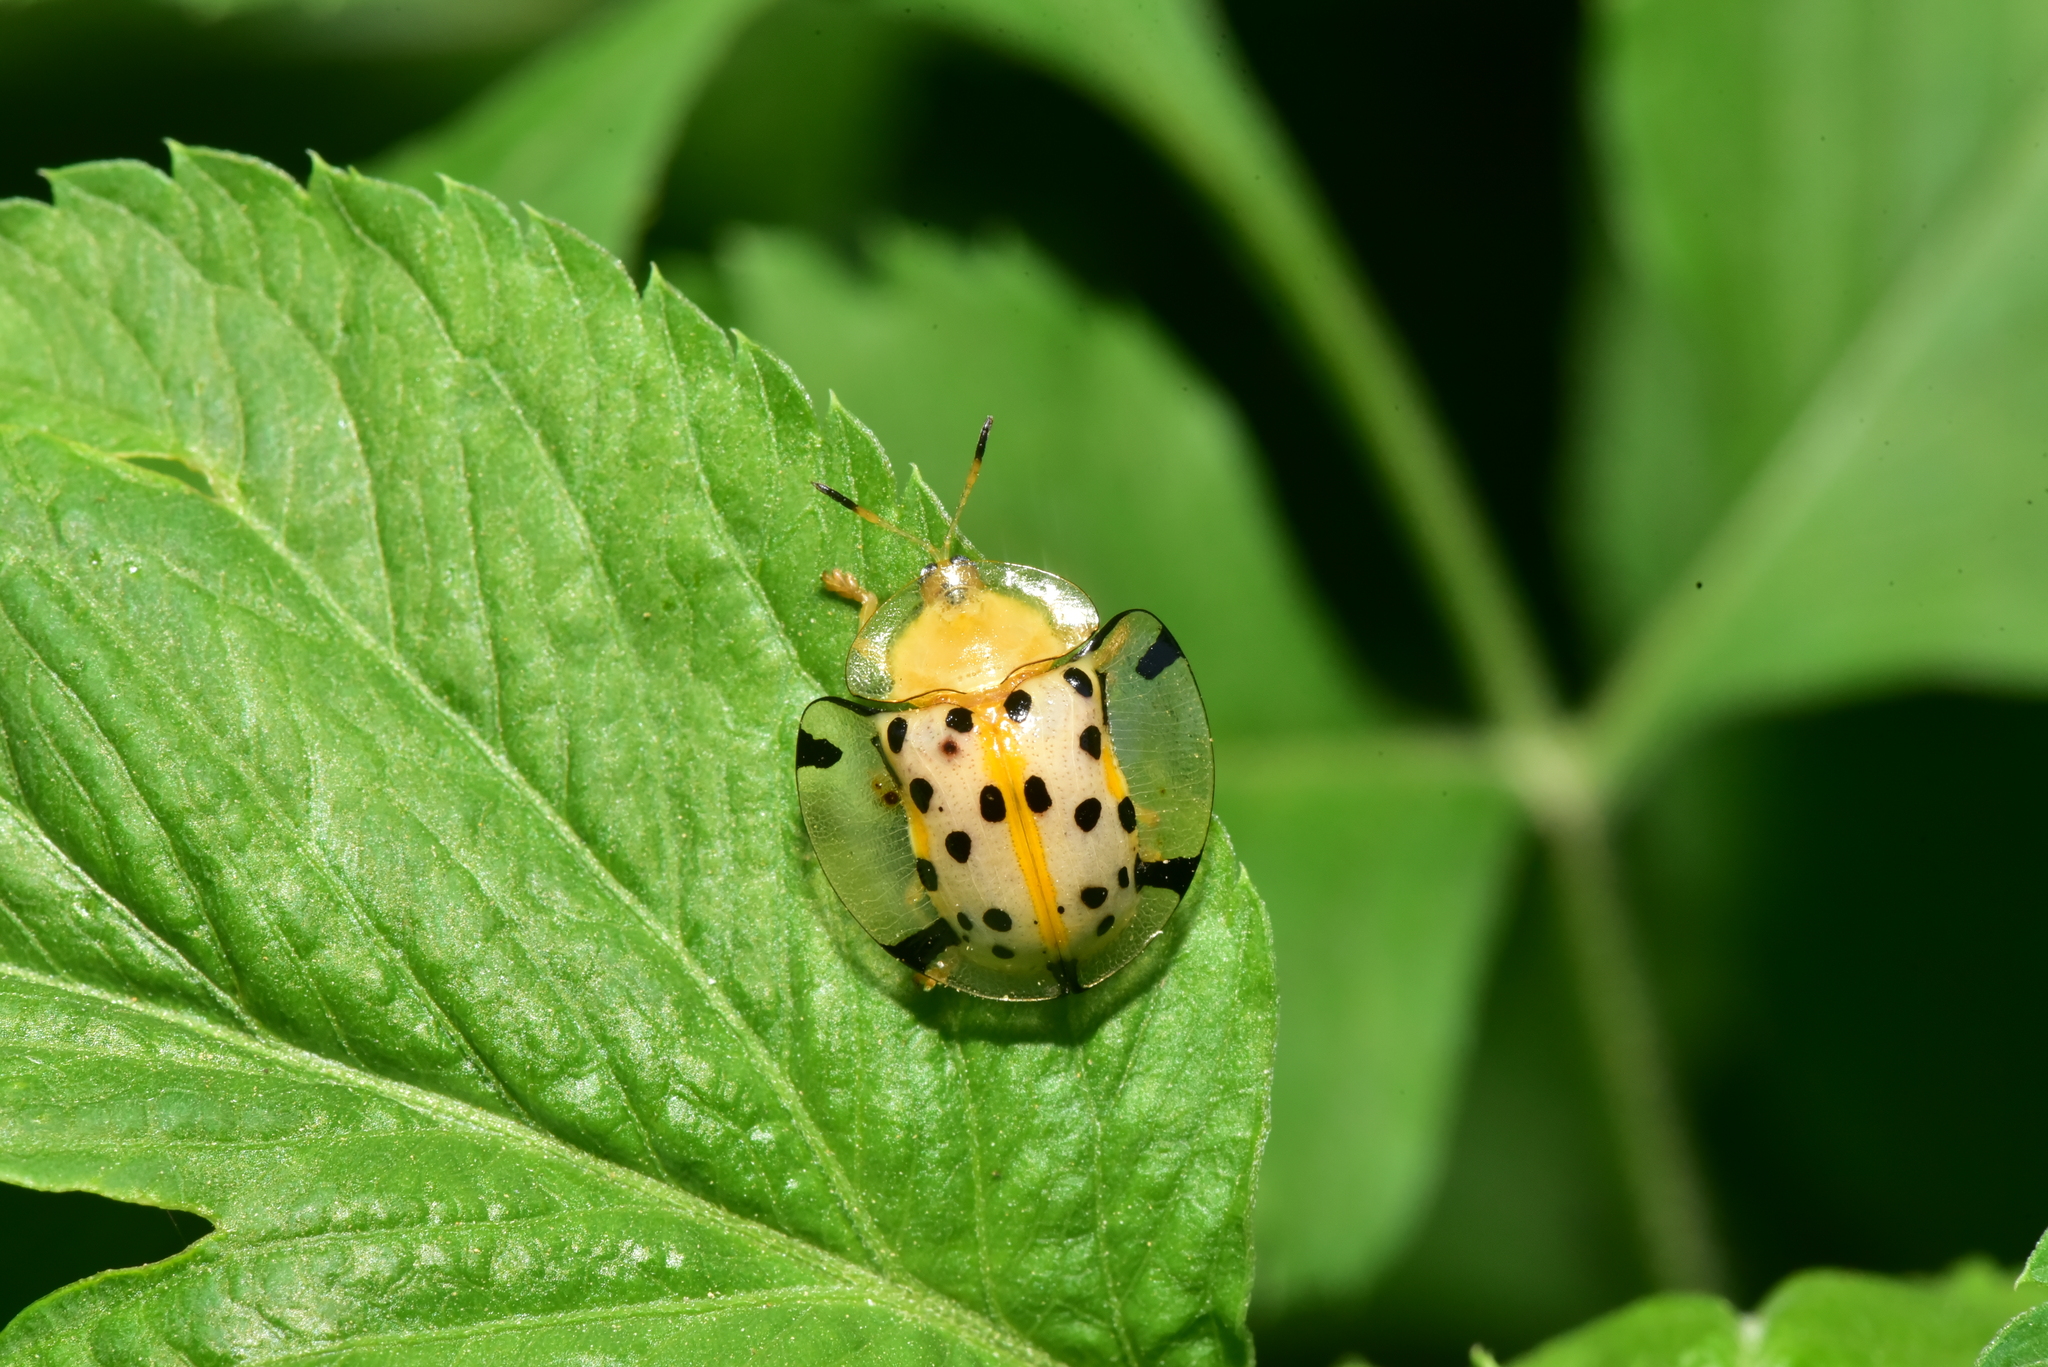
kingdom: Animalia
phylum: Arthropoda
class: Insecta
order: Coleoptera
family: Chrysomelidae
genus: Aspidimorpha
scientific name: Aspidimorpha miliaris
